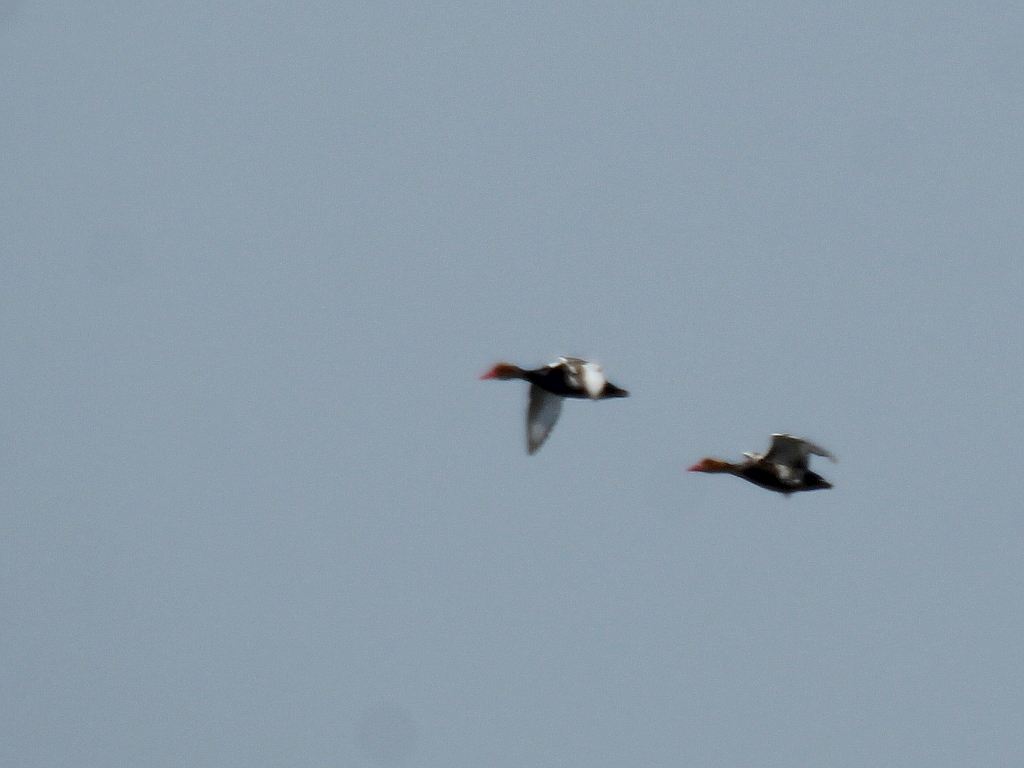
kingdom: Animalia
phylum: Chordata
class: Aves
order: Anseriformes
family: Anatidae
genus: Netta
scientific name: Netta rufina
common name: Red-crested pochard
